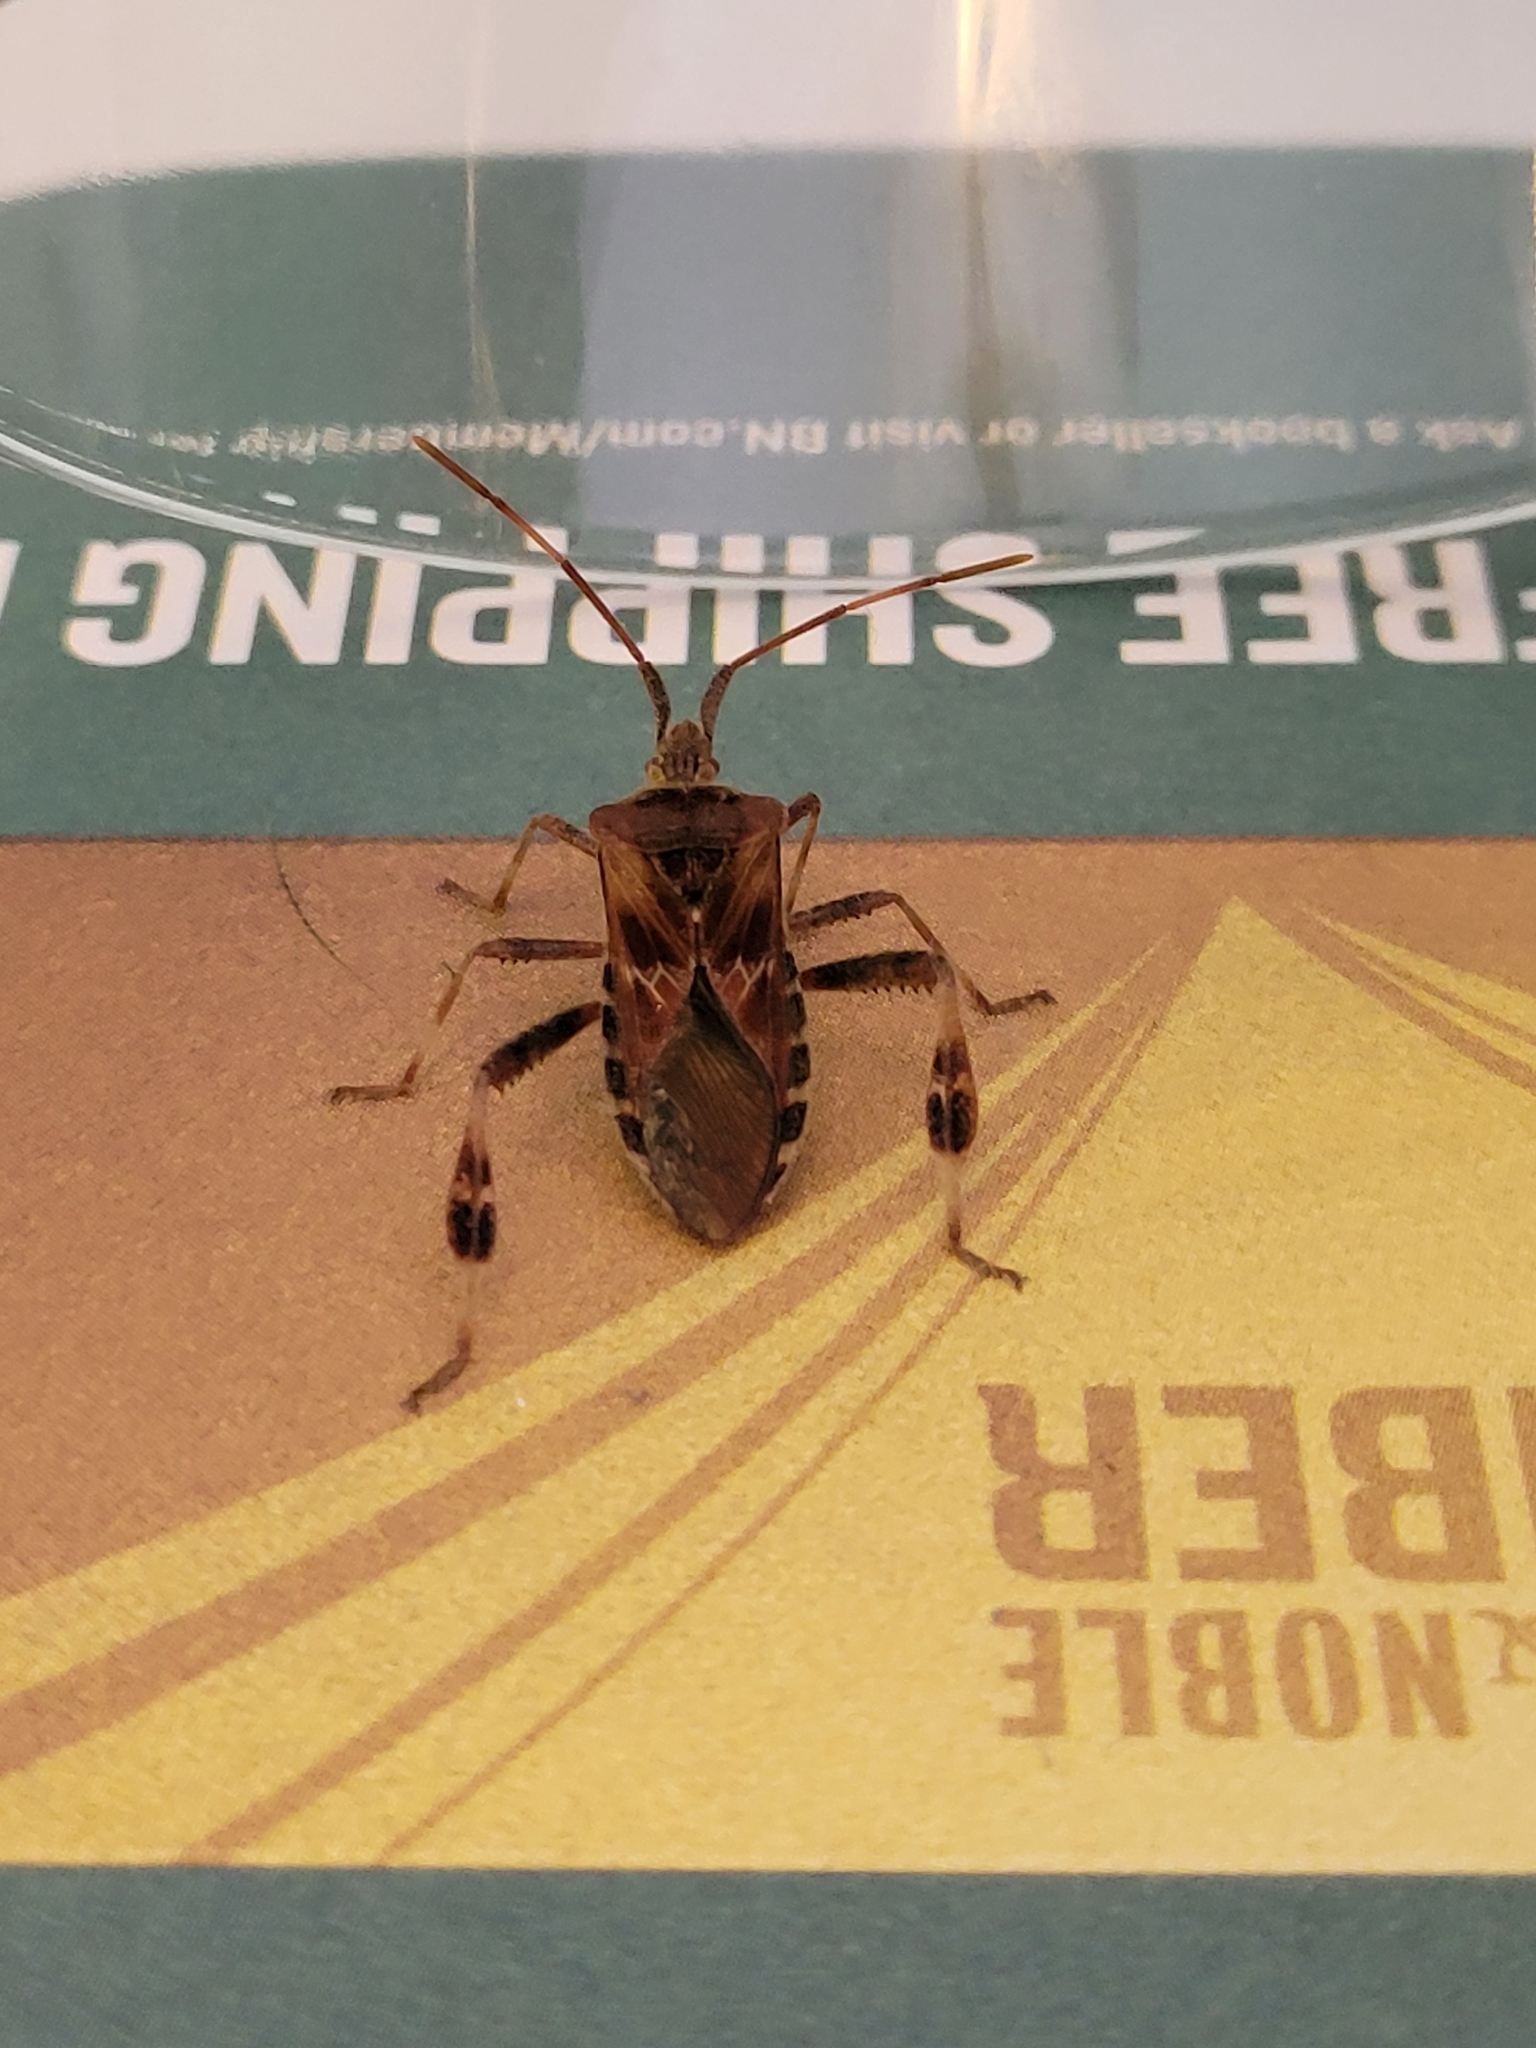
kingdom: Animalia
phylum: Arthropoda
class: Insecta
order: Hemiptera
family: Coreidae
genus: Leptoglossus
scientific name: Leptoglossus occidentalis
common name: Western conifer-seed bug
